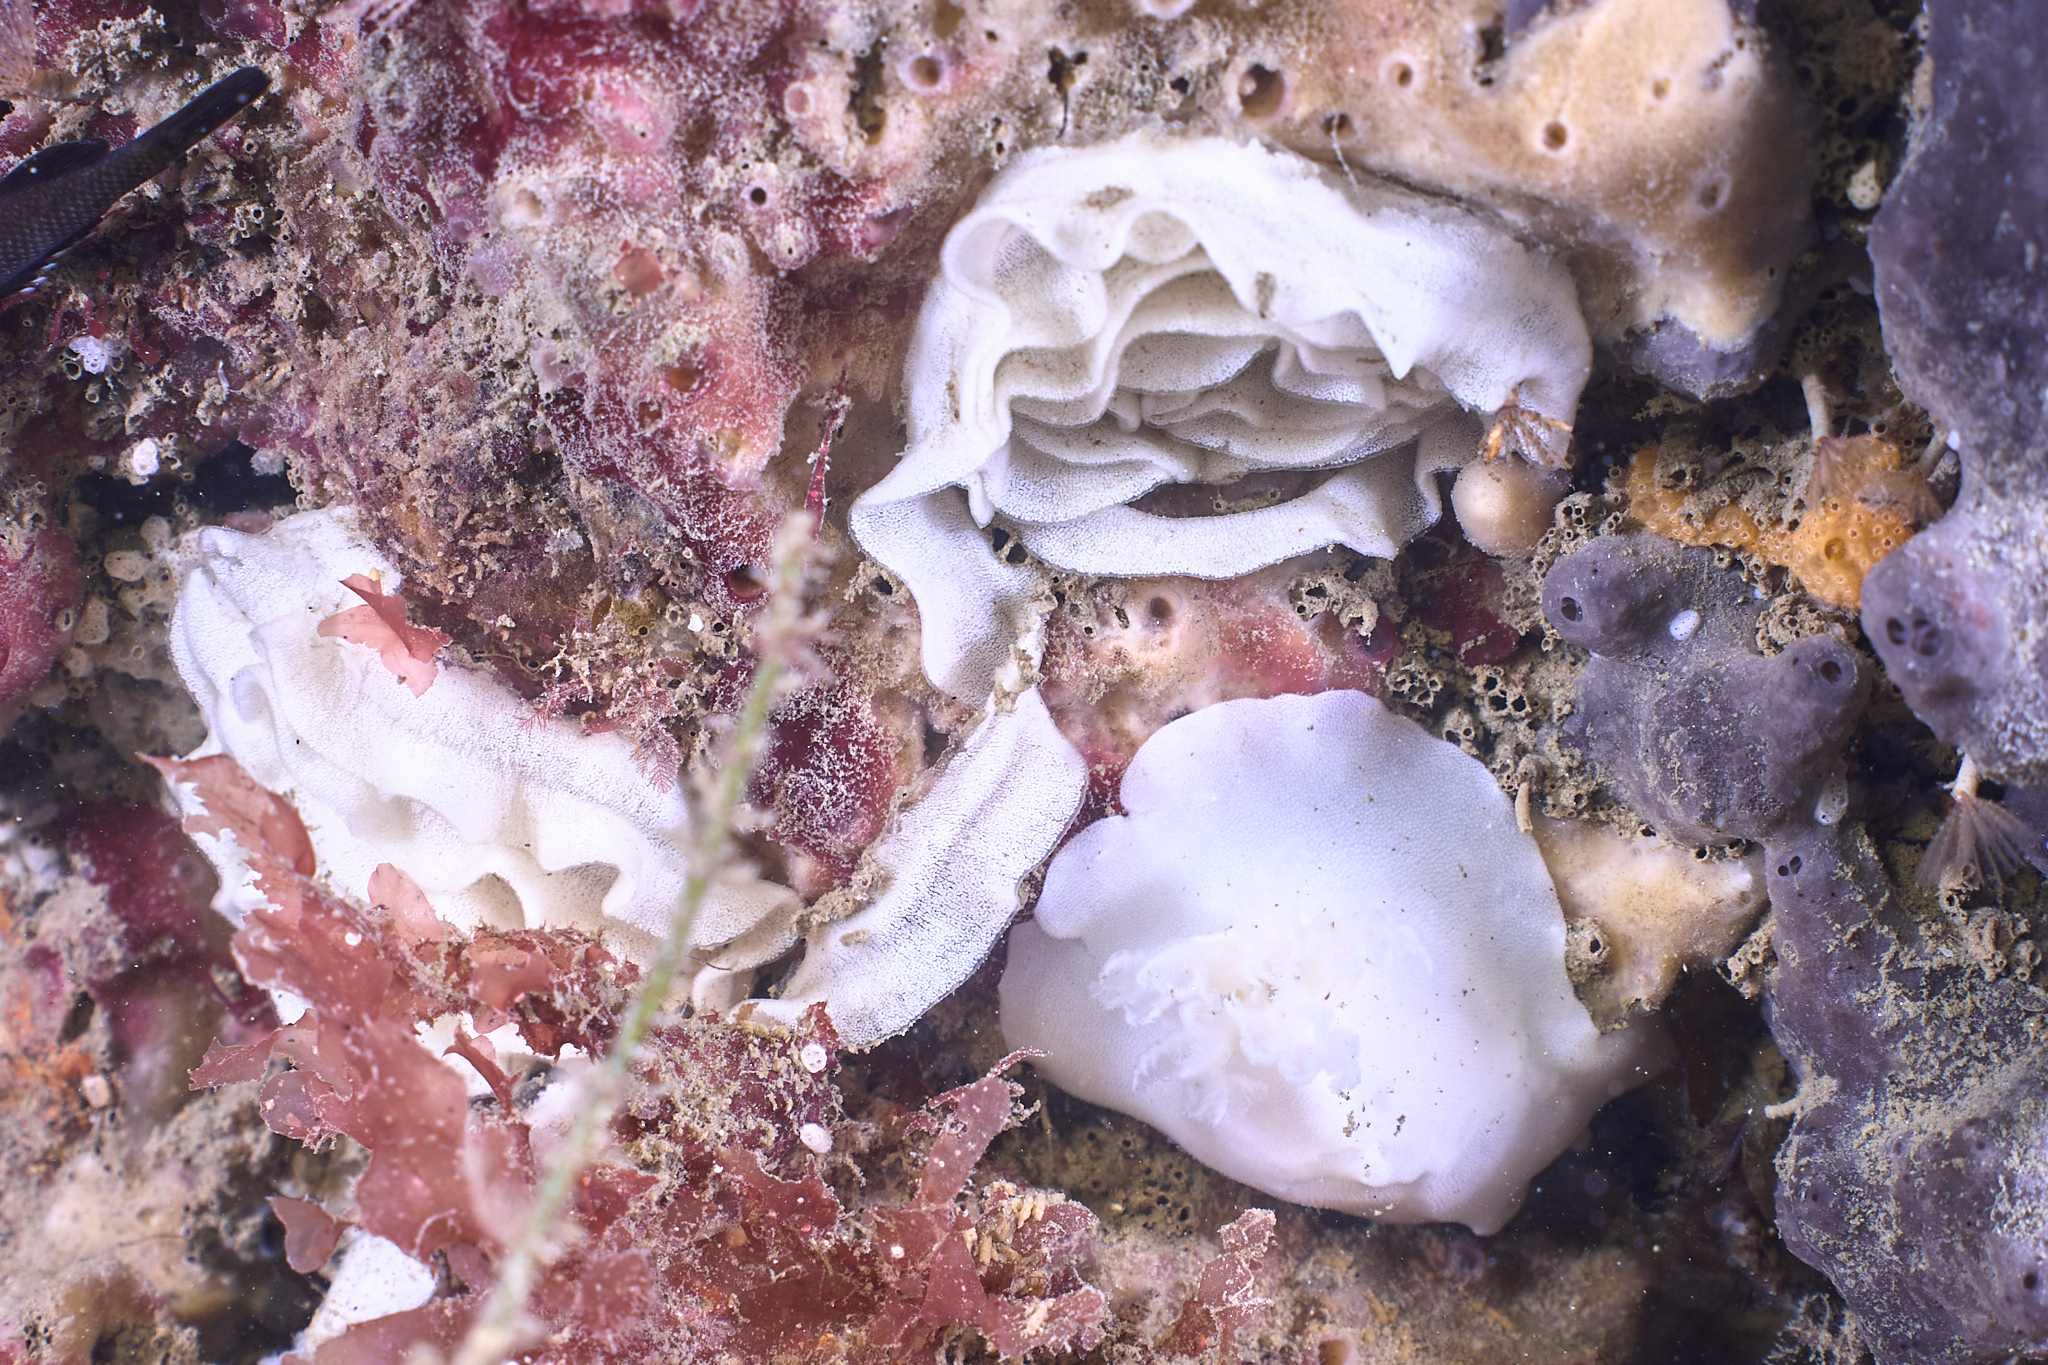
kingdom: Animalia
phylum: Mollusca
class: Gastropoda
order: Nudibranchia
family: Discodorididae
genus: Atagema
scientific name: Atagema carinata
